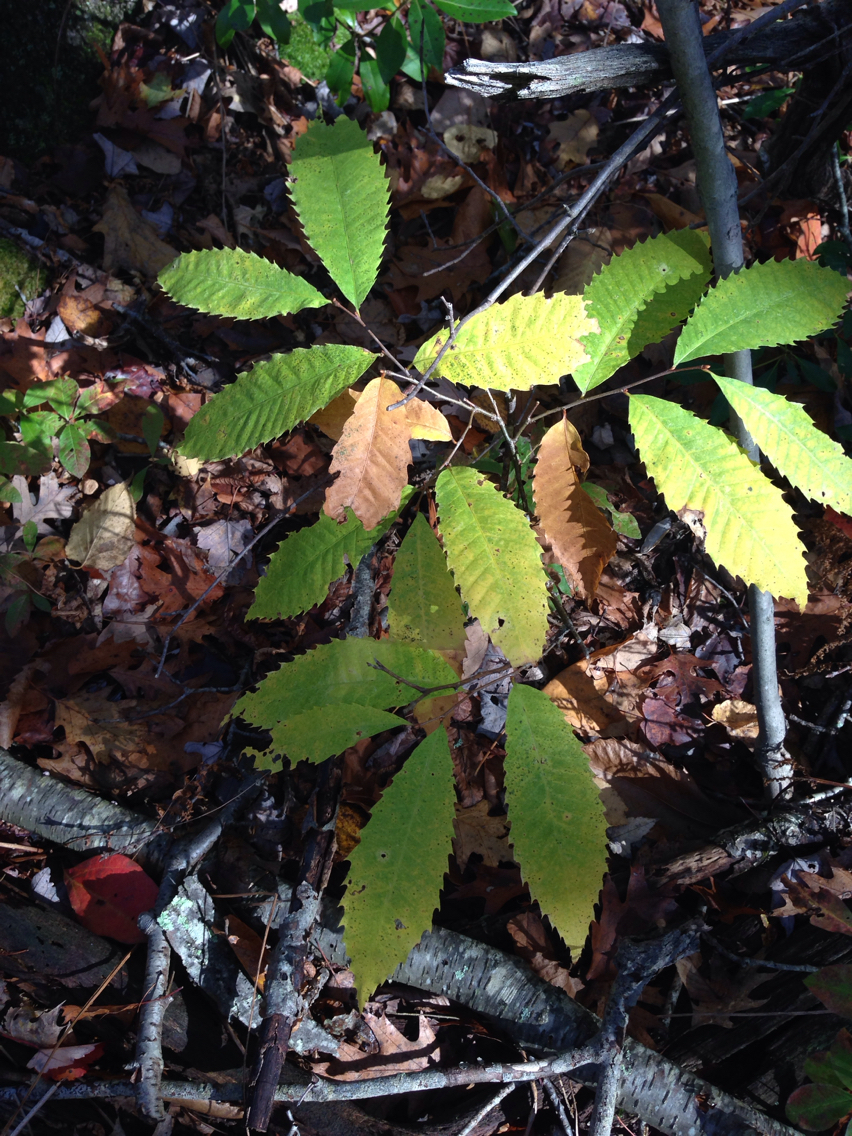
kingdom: Plantae
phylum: Tracheophyta
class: Magnoliopsida
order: Fagales
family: Fagaceae
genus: Castanea
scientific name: Castanea dentata
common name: American chestnut
